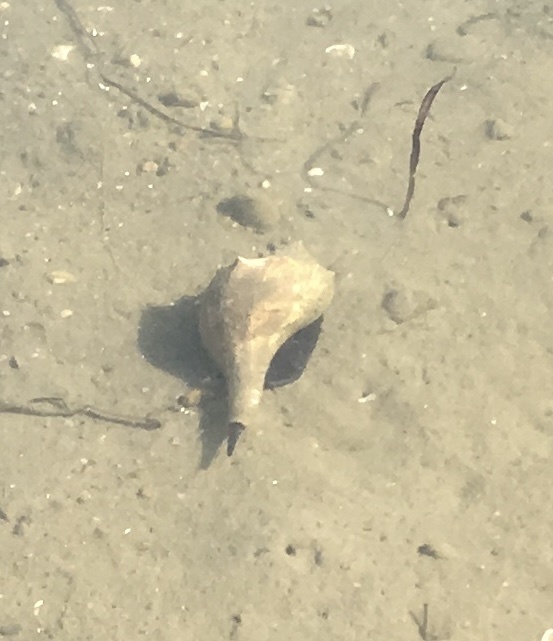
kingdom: Animalia
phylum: Mollusca
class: Gastropoda
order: Neogastropoda
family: Busyconidae
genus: Busycon
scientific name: Busycon carica
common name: Knobbed whelk
